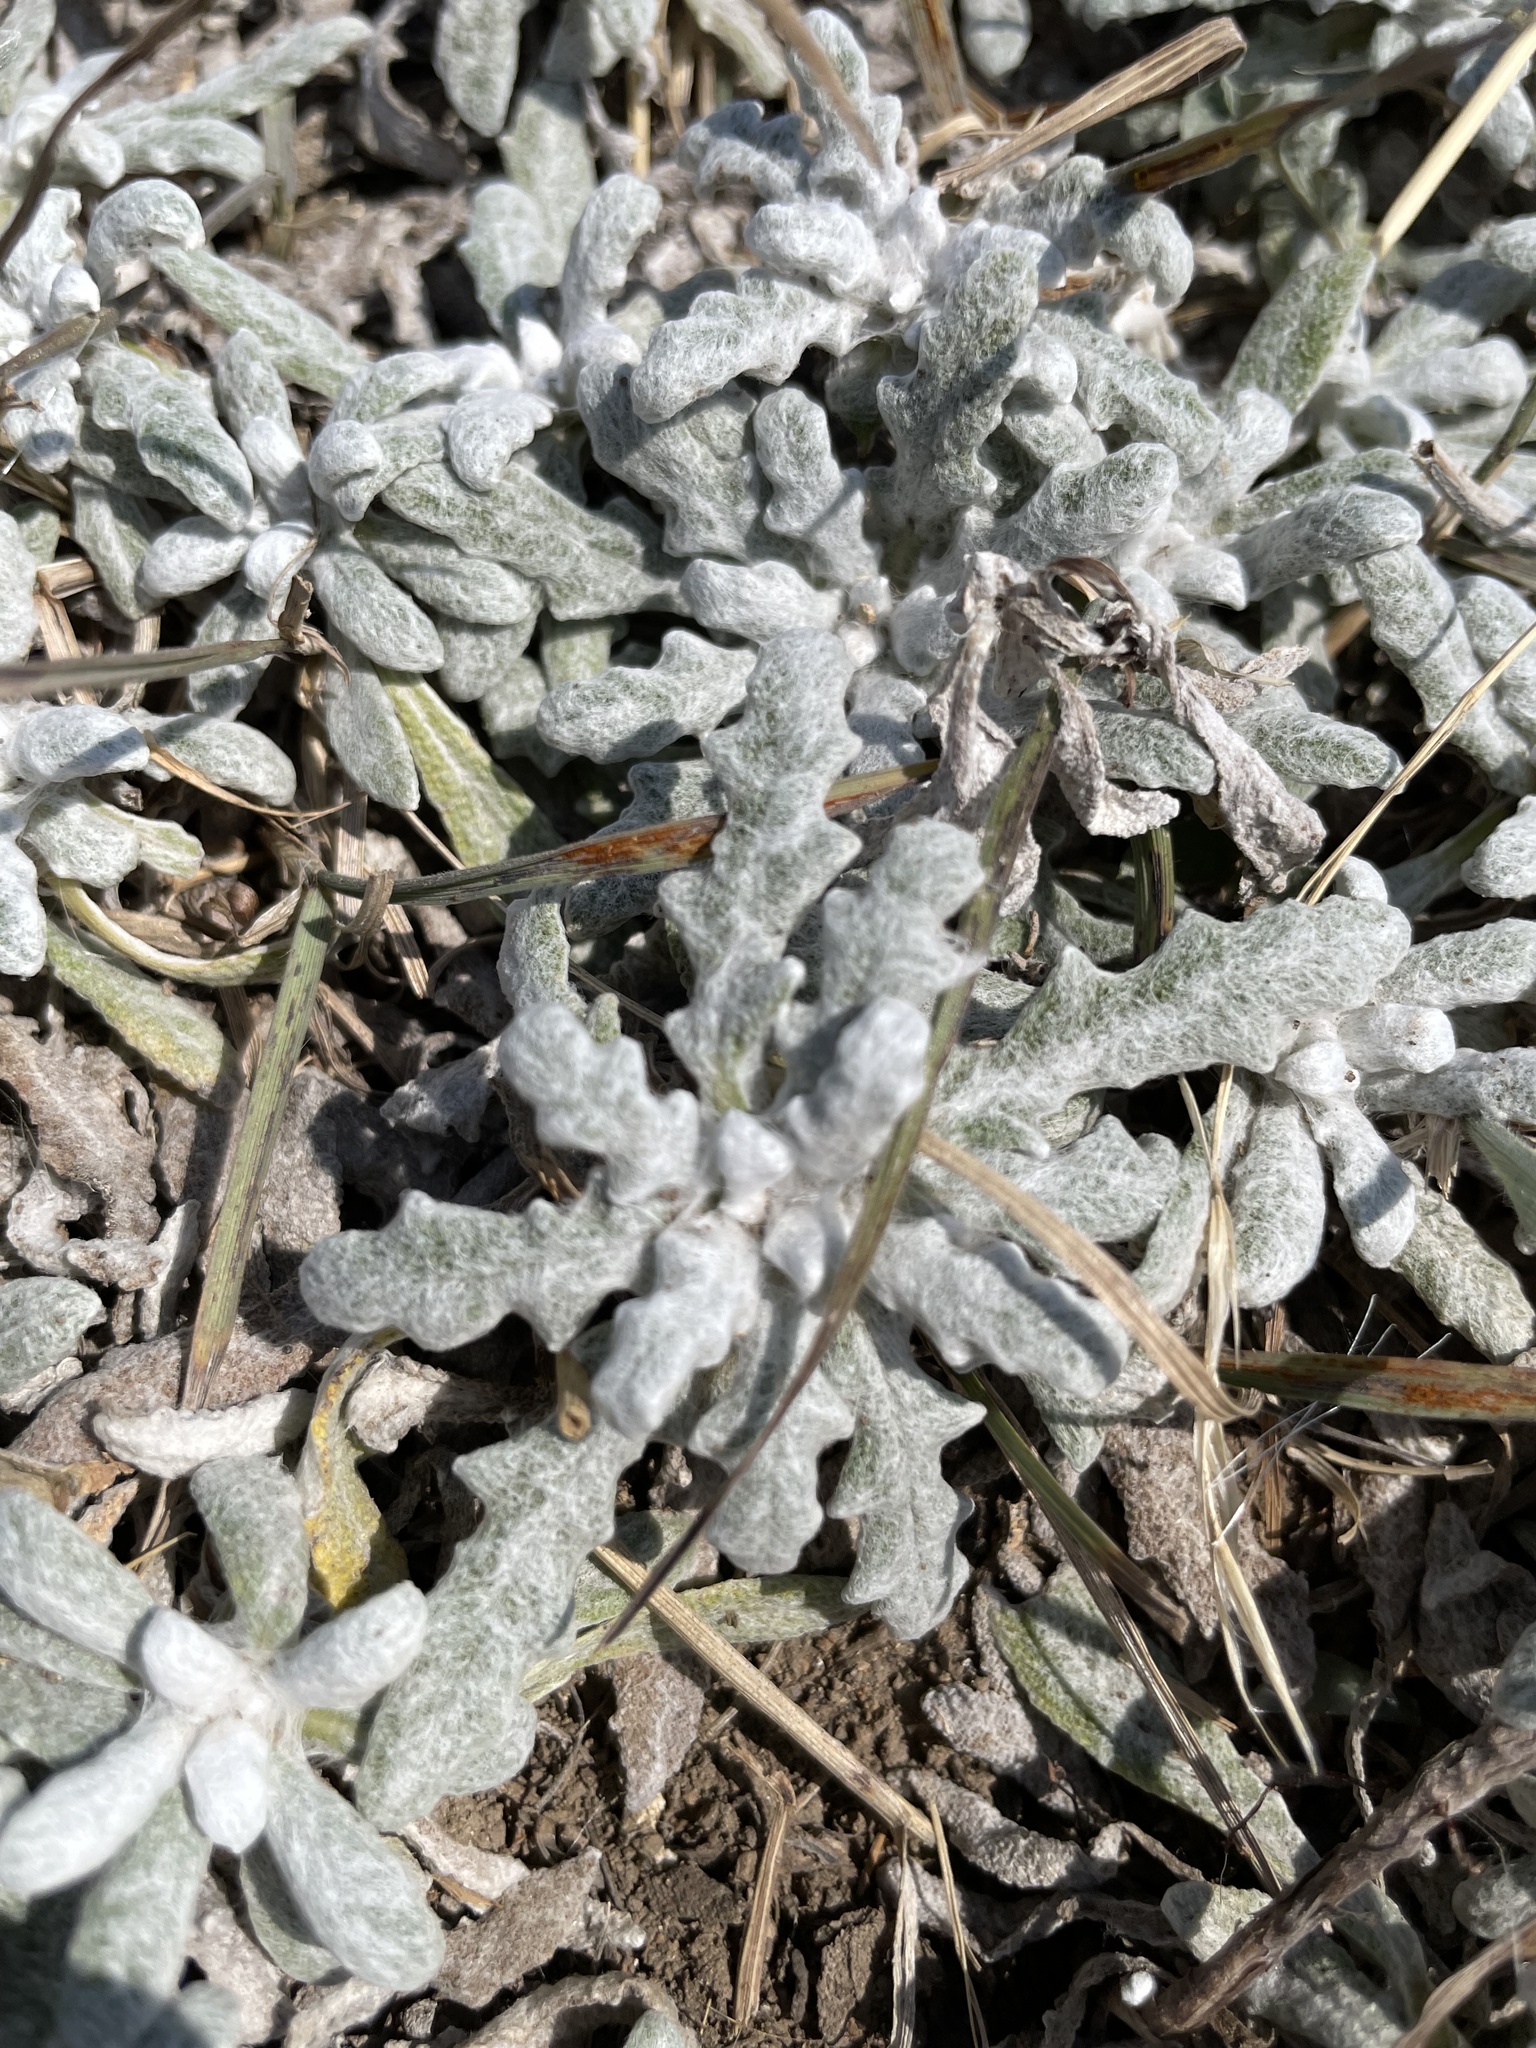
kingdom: Plantae
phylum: Tracheophyta
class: Magnoliopsida
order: Lamiales
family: Lamiaceae
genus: Salvia
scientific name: Salvia canescens
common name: Hoary salvia
